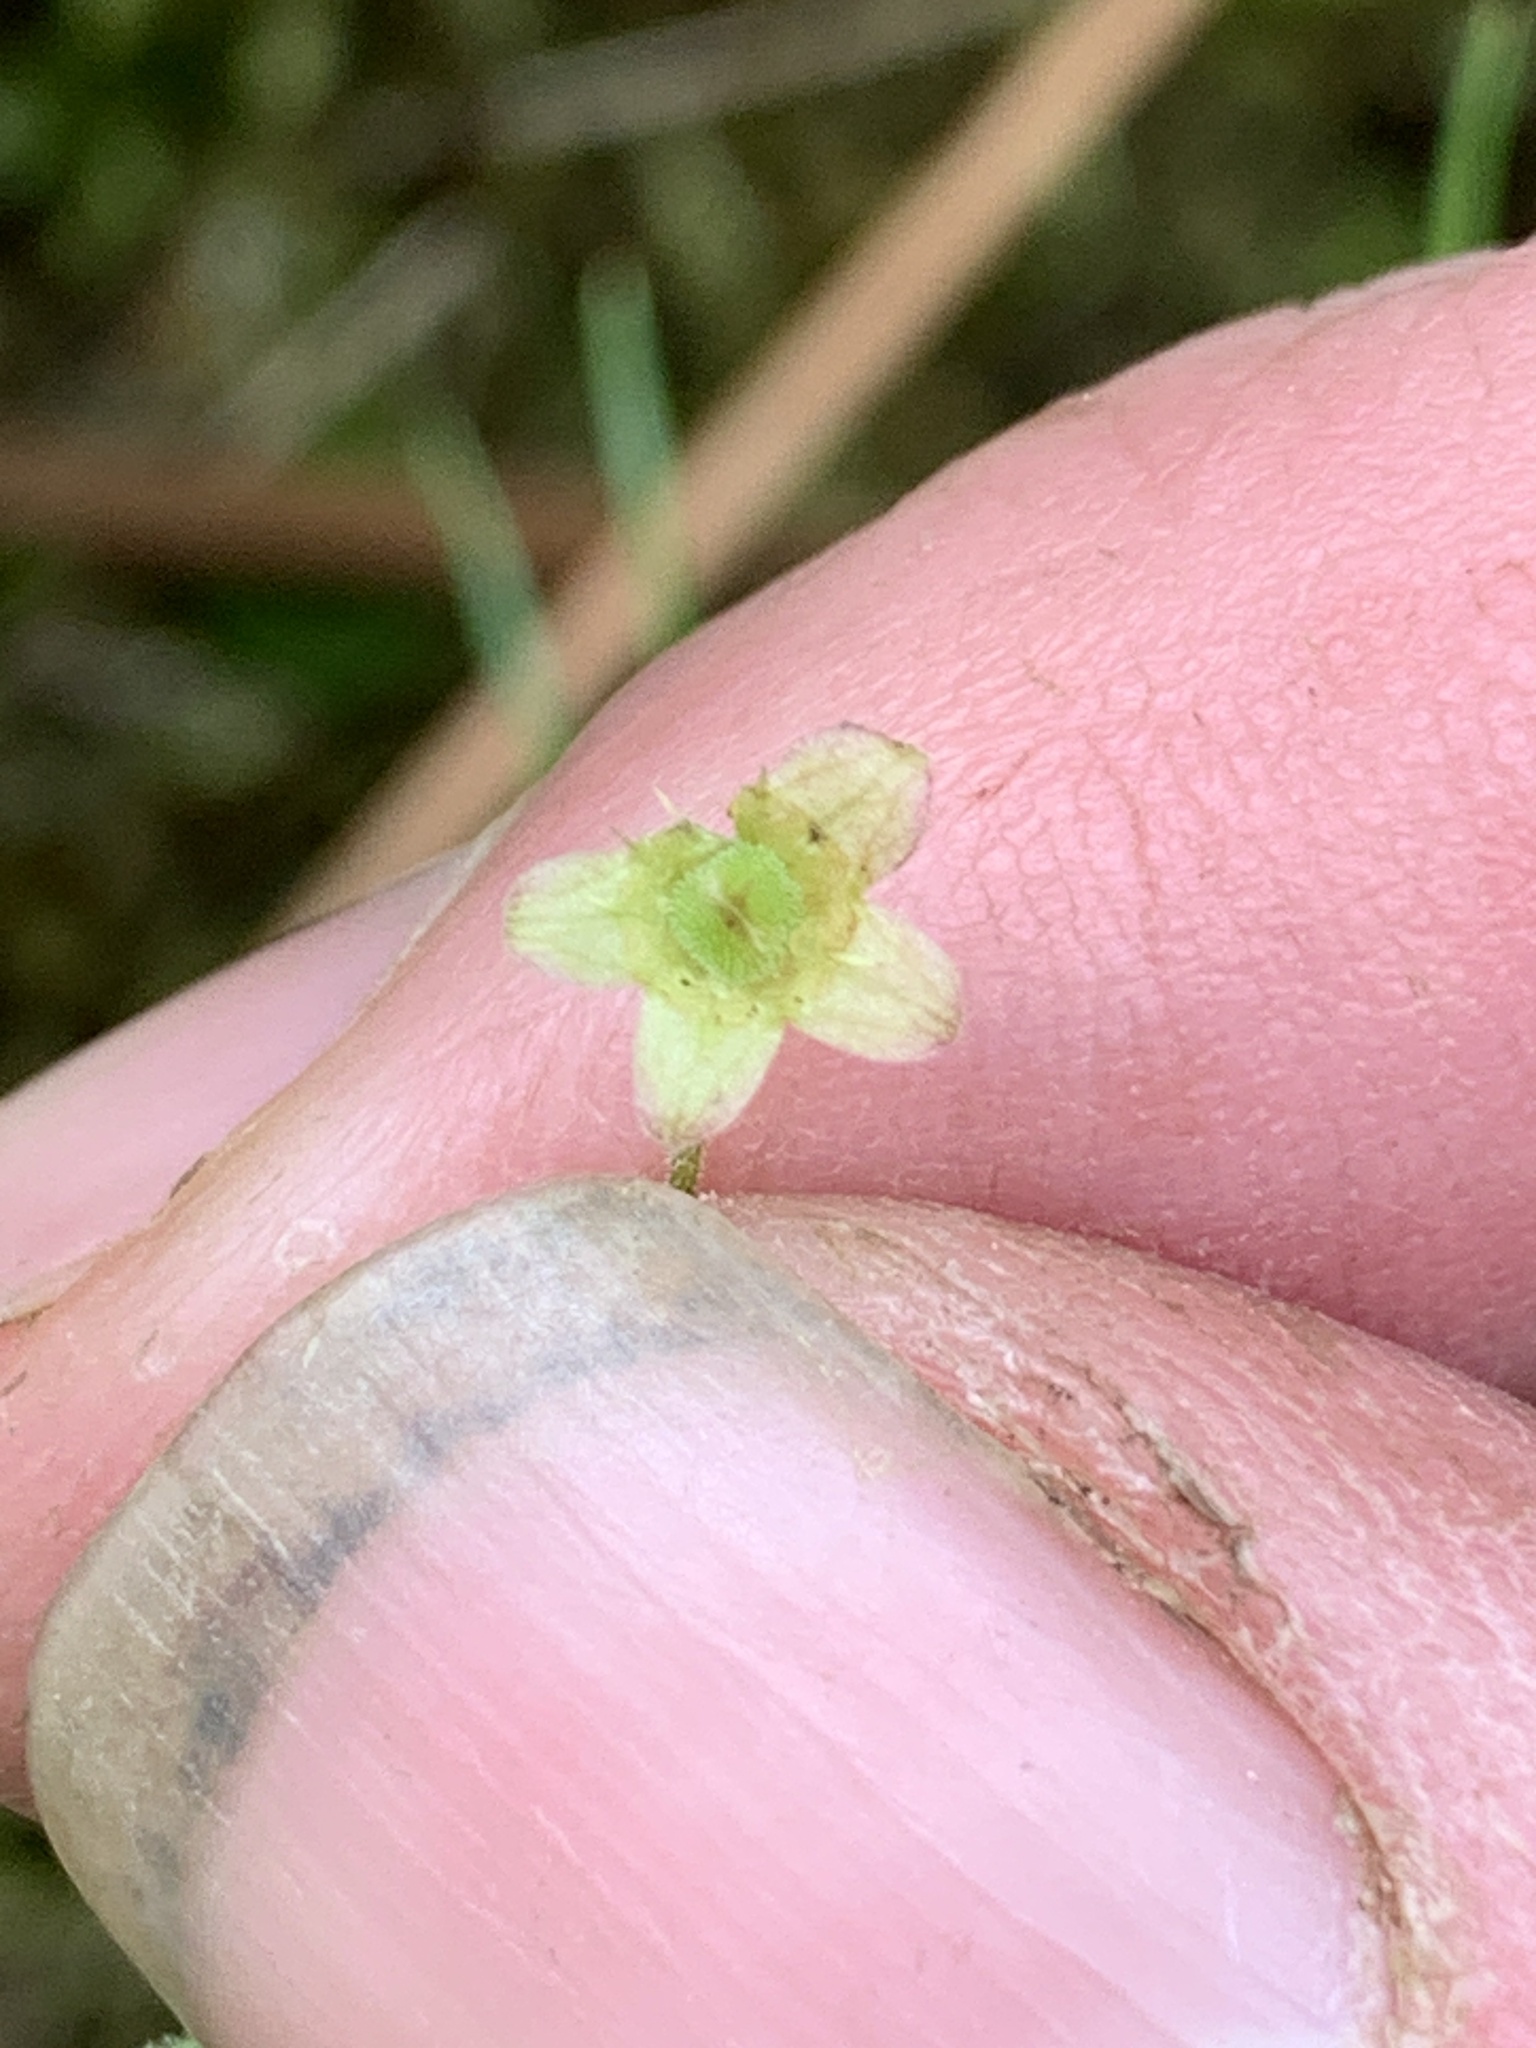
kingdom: Plantae
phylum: Tracheophyta
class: Magnoliopsida
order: Saxifragales
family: Saxifragaceae
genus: Mitella
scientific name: Mitella nuda
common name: Bare-stemmed bishop's-cap
